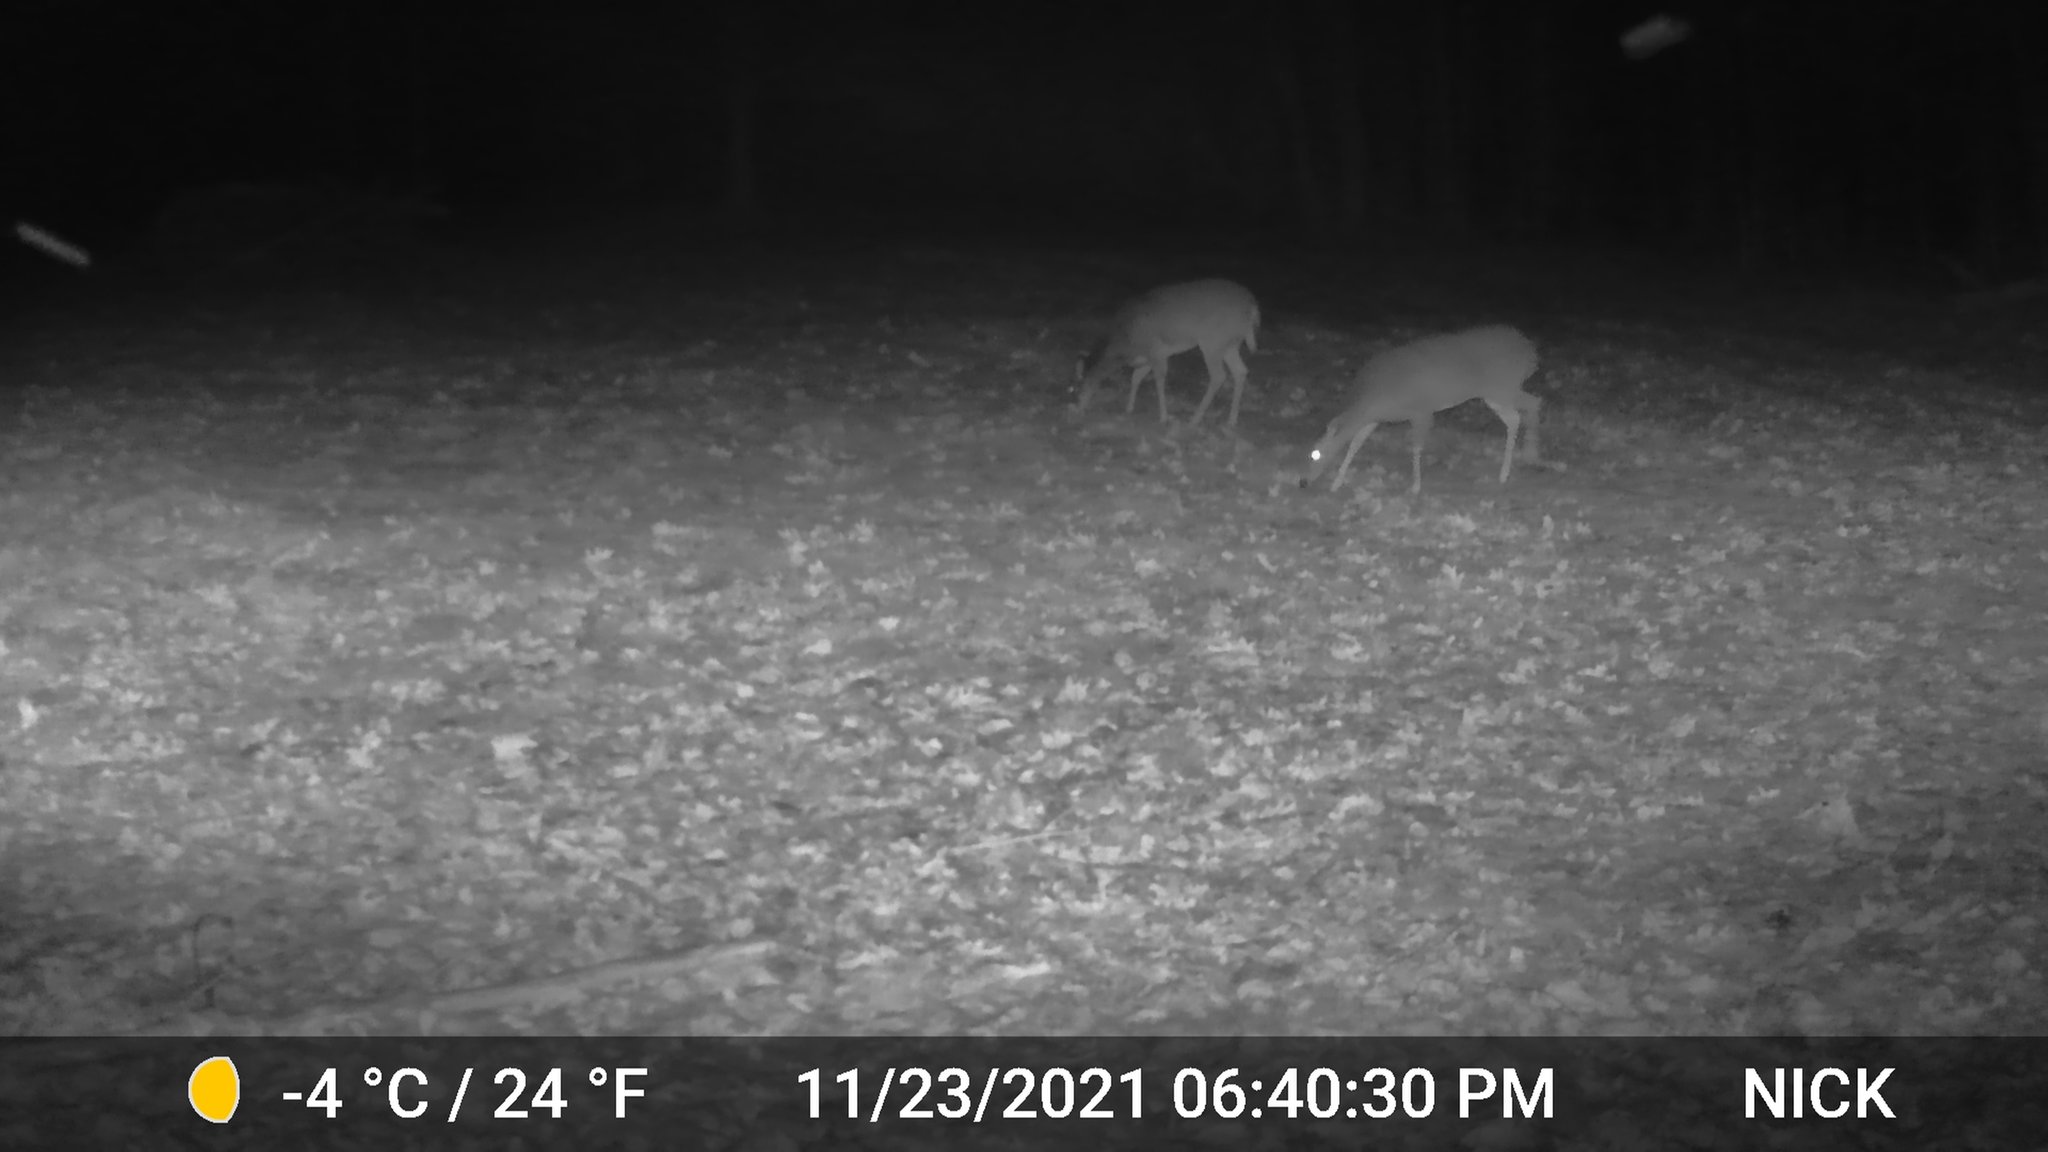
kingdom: Animalia
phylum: Chordata
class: Mammalia
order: Artiodactyla
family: Cervidae
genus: Odocoileus
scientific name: Odocoileus virginianus
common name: White-tailed deer
